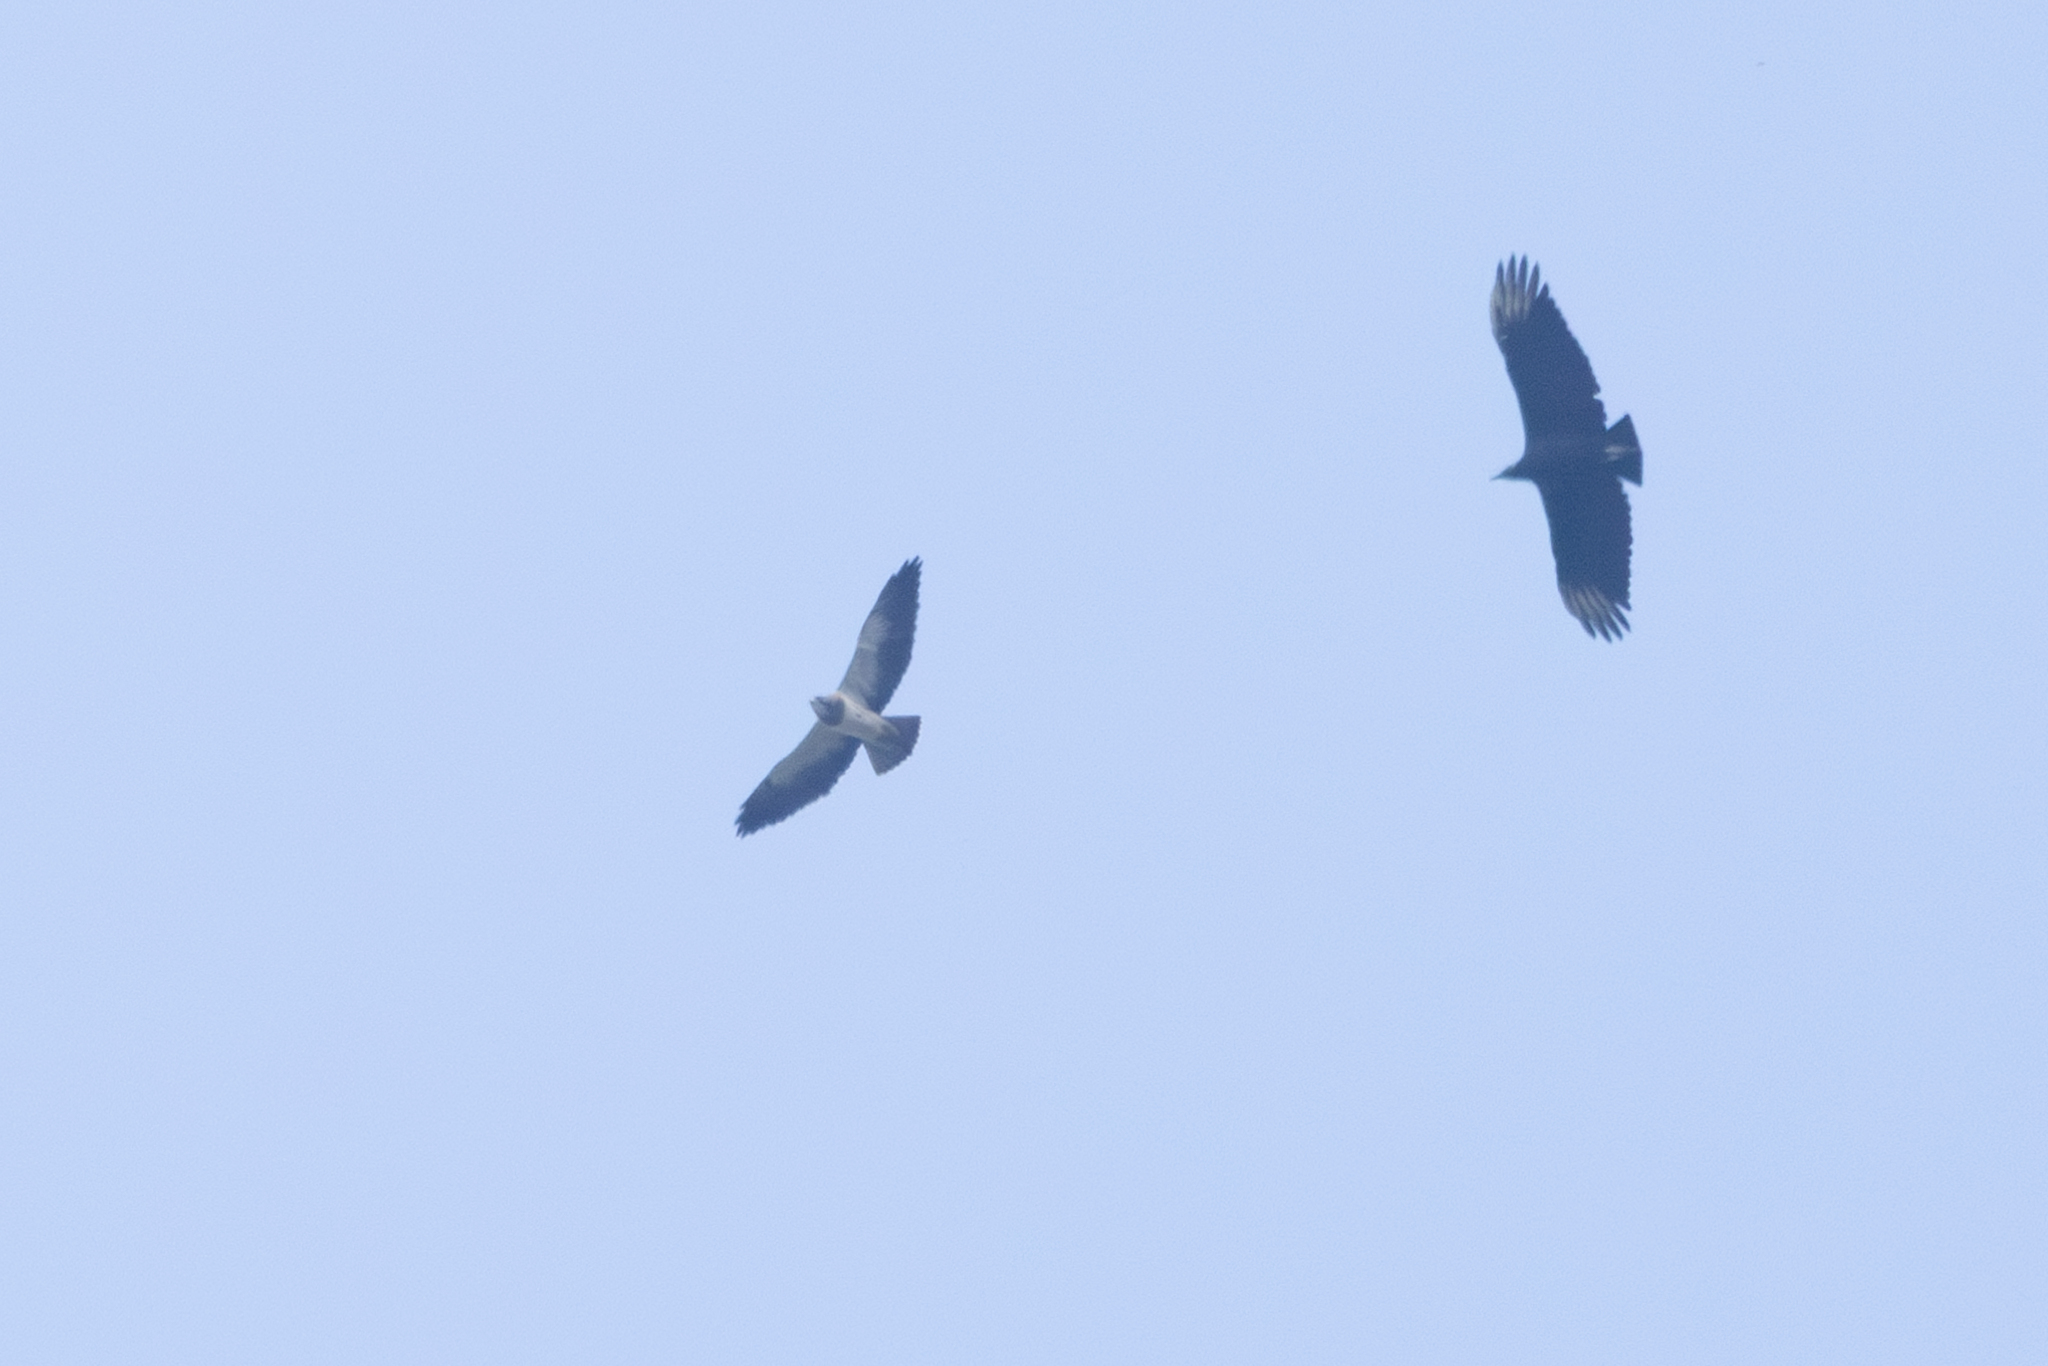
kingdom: Animalia
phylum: Chordata
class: Aves
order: Accipitriformes
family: Accipitridae
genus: Buteo
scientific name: Buteo swainsoni
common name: Swainson's hawk
